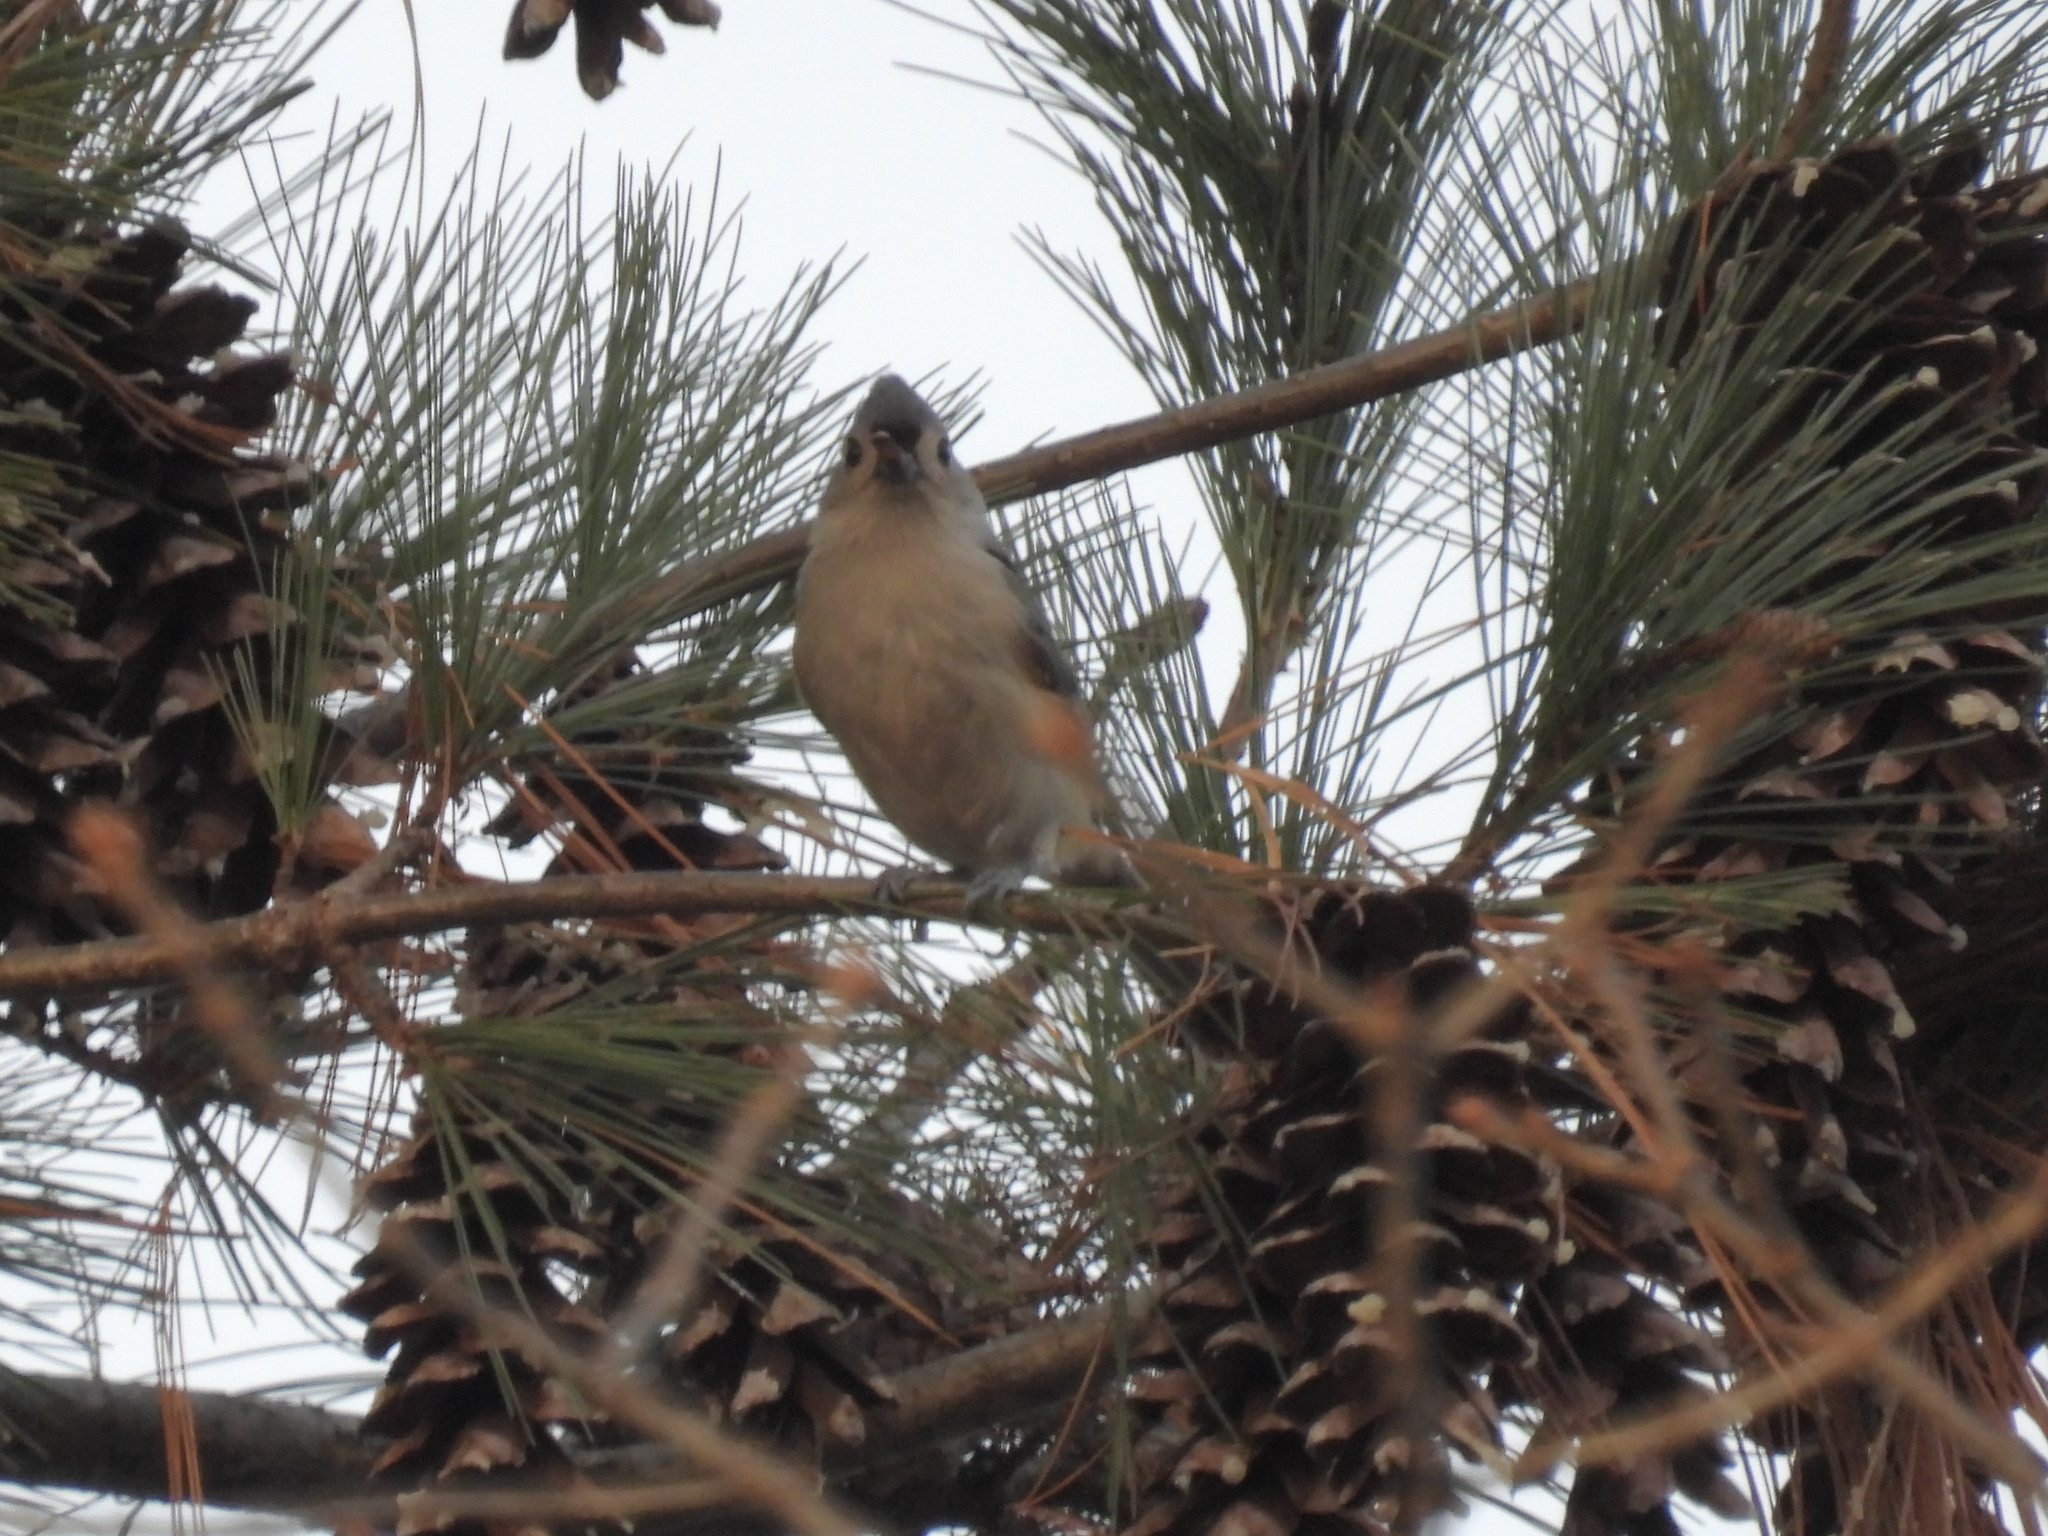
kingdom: Animalia
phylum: Chordata
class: Aves
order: Passeriformes
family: Paridae
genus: Baeolophus
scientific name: Baeolophus bicolor
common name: Tufted titmouse
